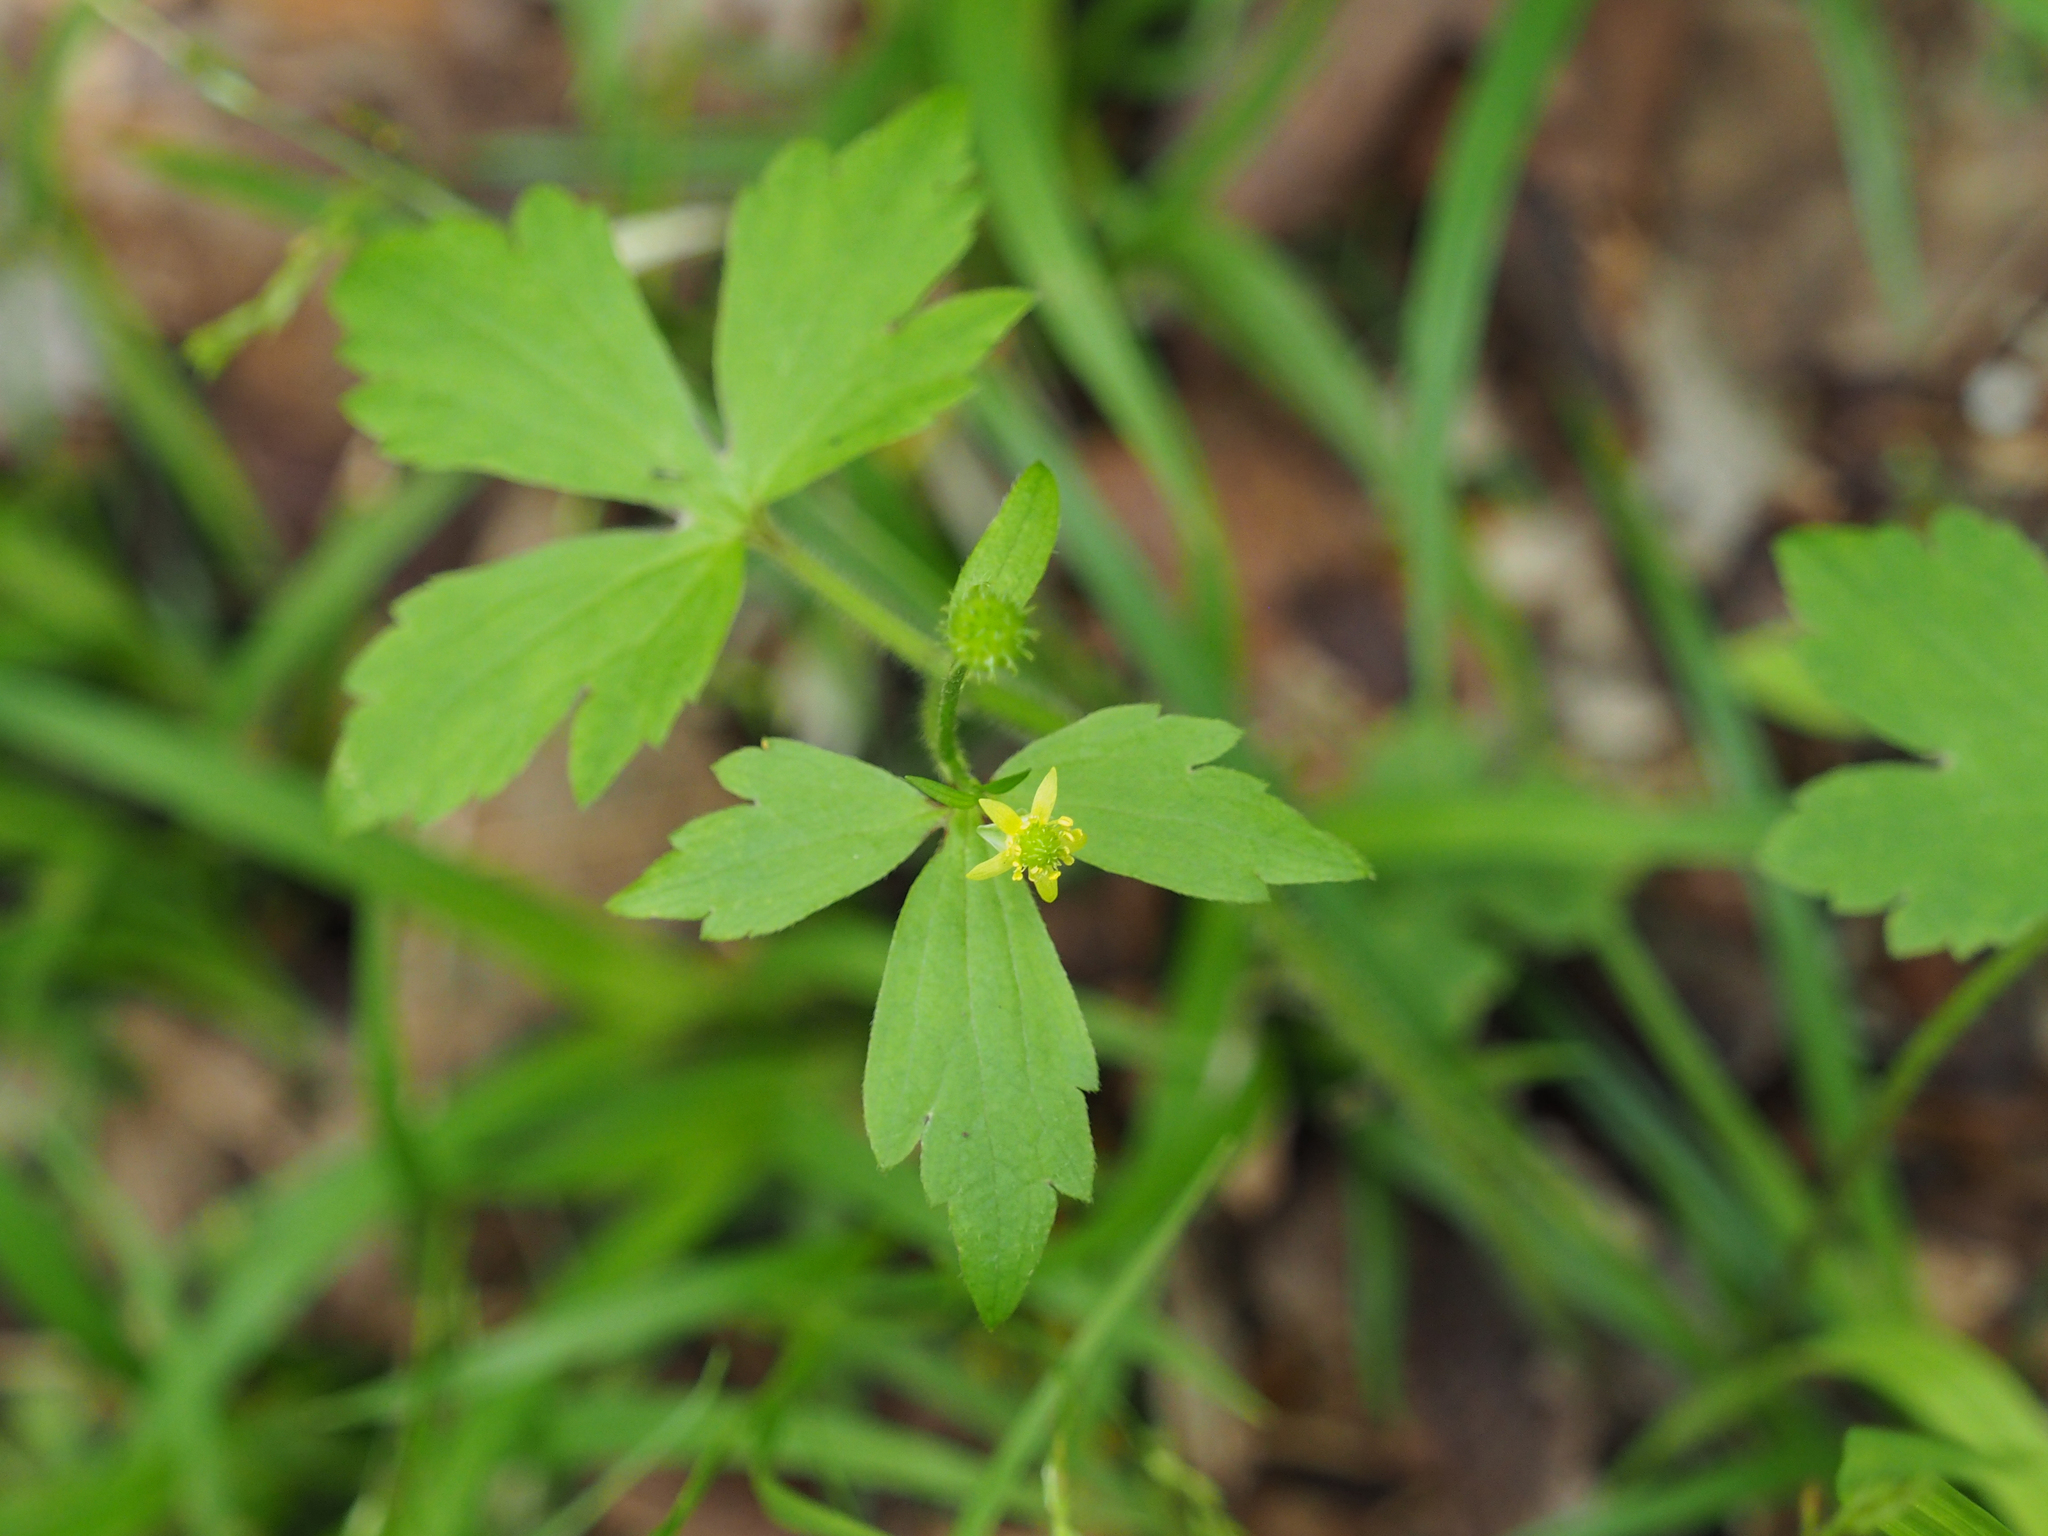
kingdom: Plantae
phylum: Tracheophyta
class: Magnoliopsida
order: Ranunculales
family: Ranunculaceae
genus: Ranunculus
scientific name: Ranunculus recurvatus
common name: Blisterwort
